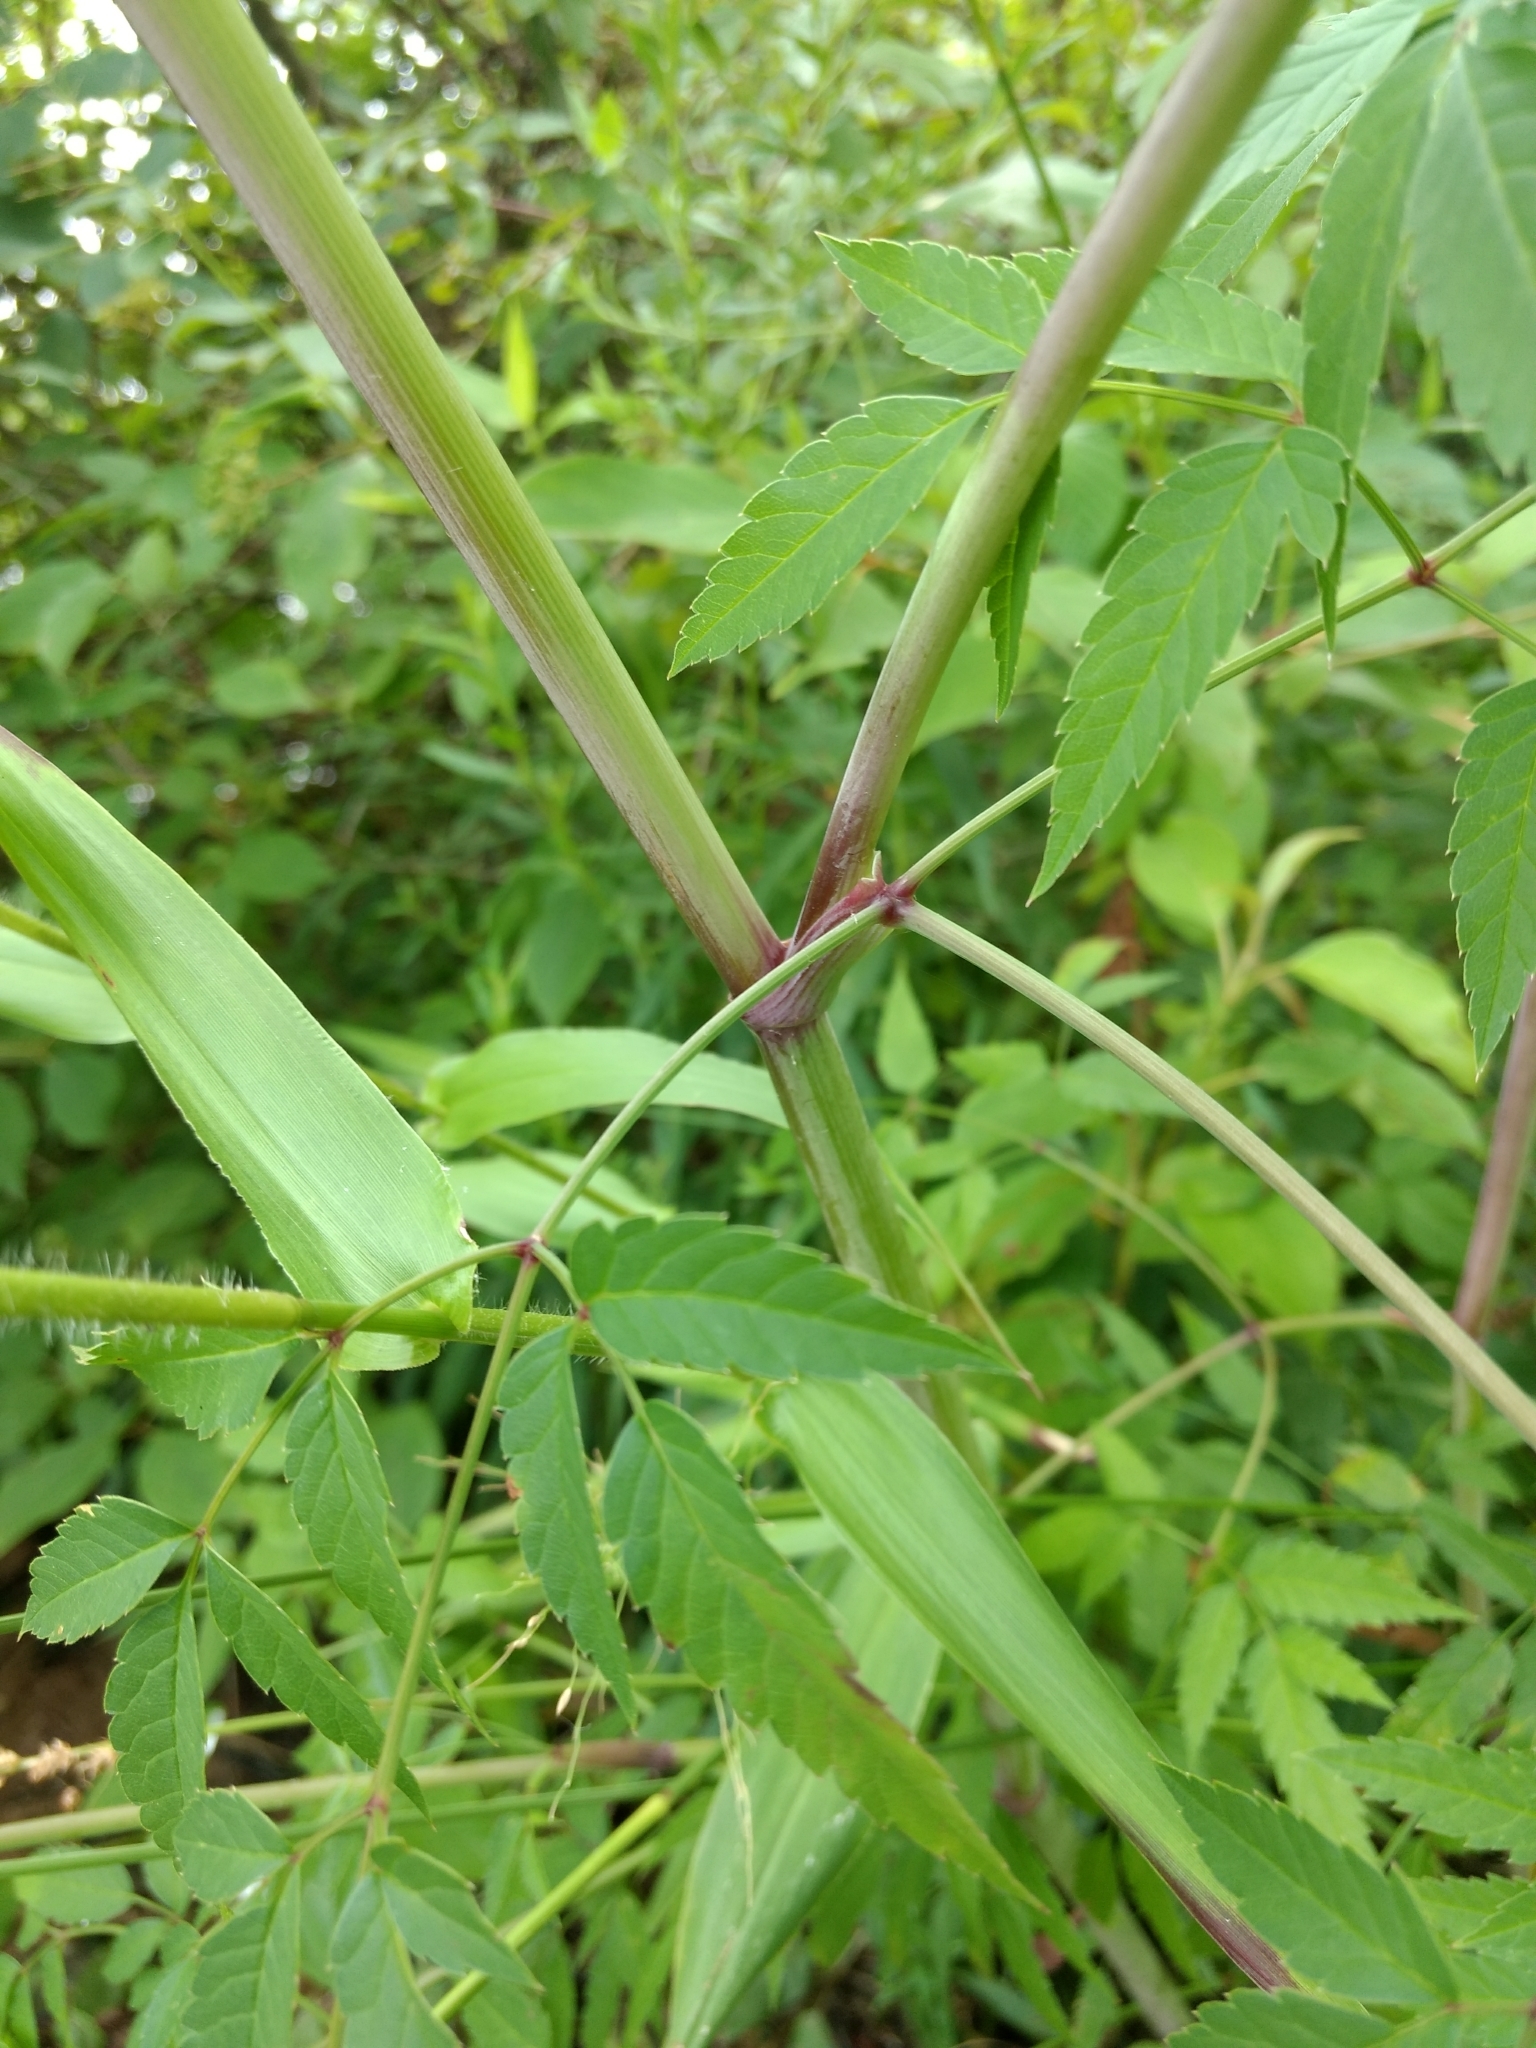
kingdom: Plantae
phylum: Tracheophyta
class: Magnoliopsida
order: Apiales
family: Apiaceae
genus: Cicuta
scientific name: Cicuta maculata
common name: Spotted cowbane
